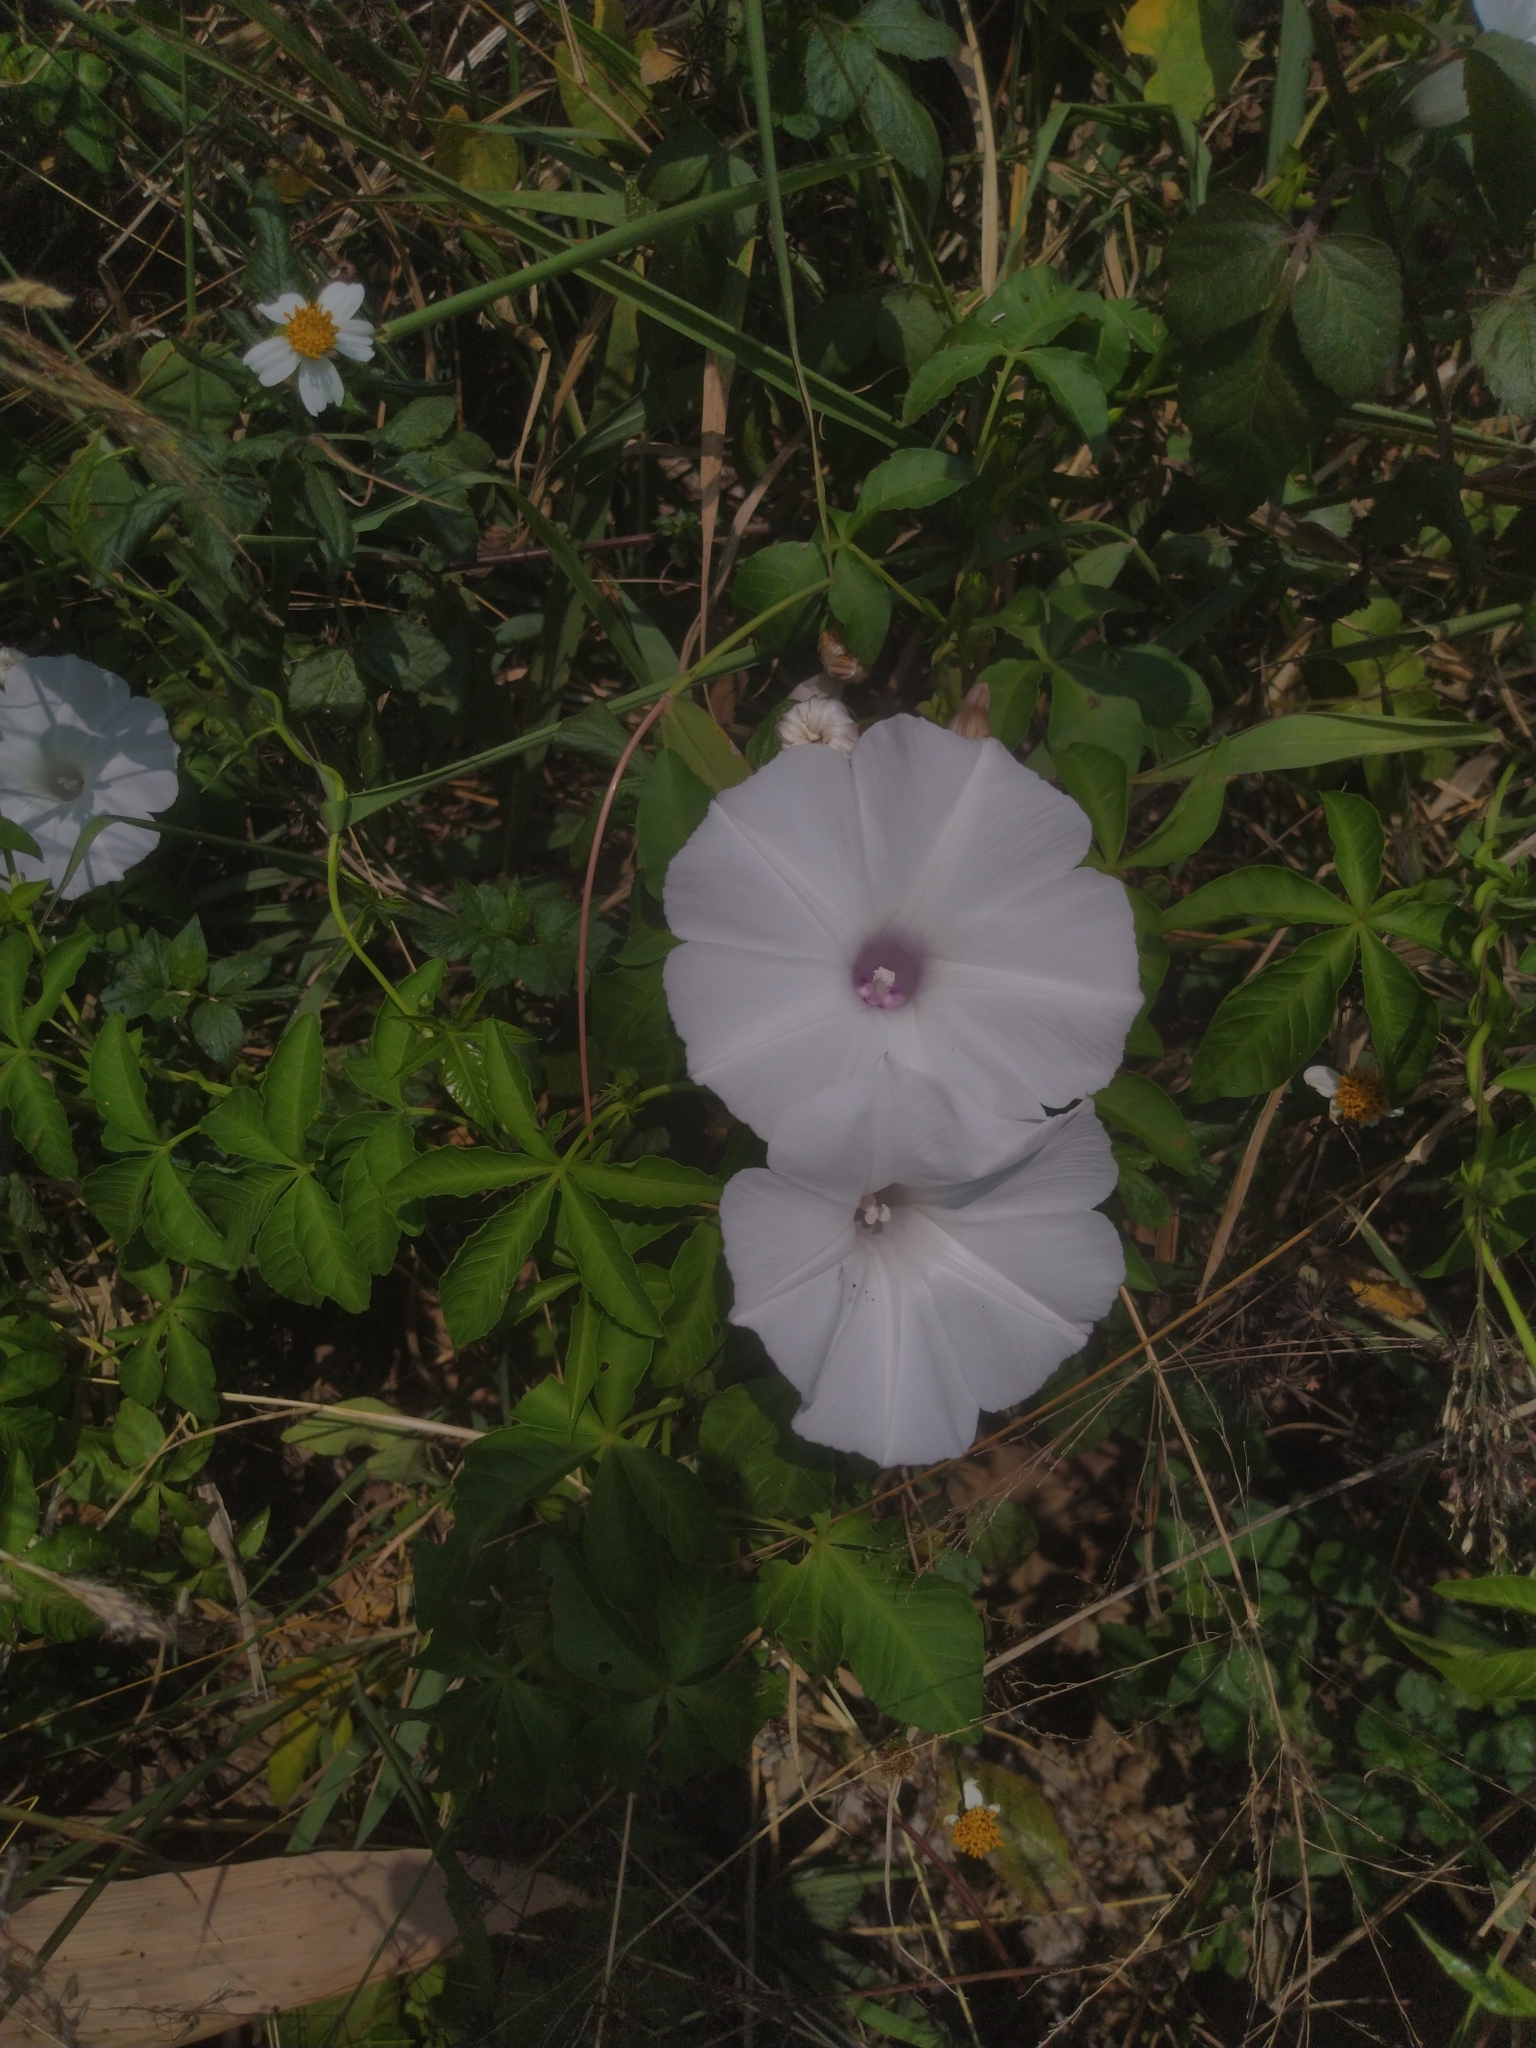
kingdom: Plantae
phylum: Tracheophyta
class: Magnoliopsida
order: Solanales
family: Convolvulaceae
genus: Ipomoea
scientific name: Ipomoea cairica
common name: Mile a minute vine
